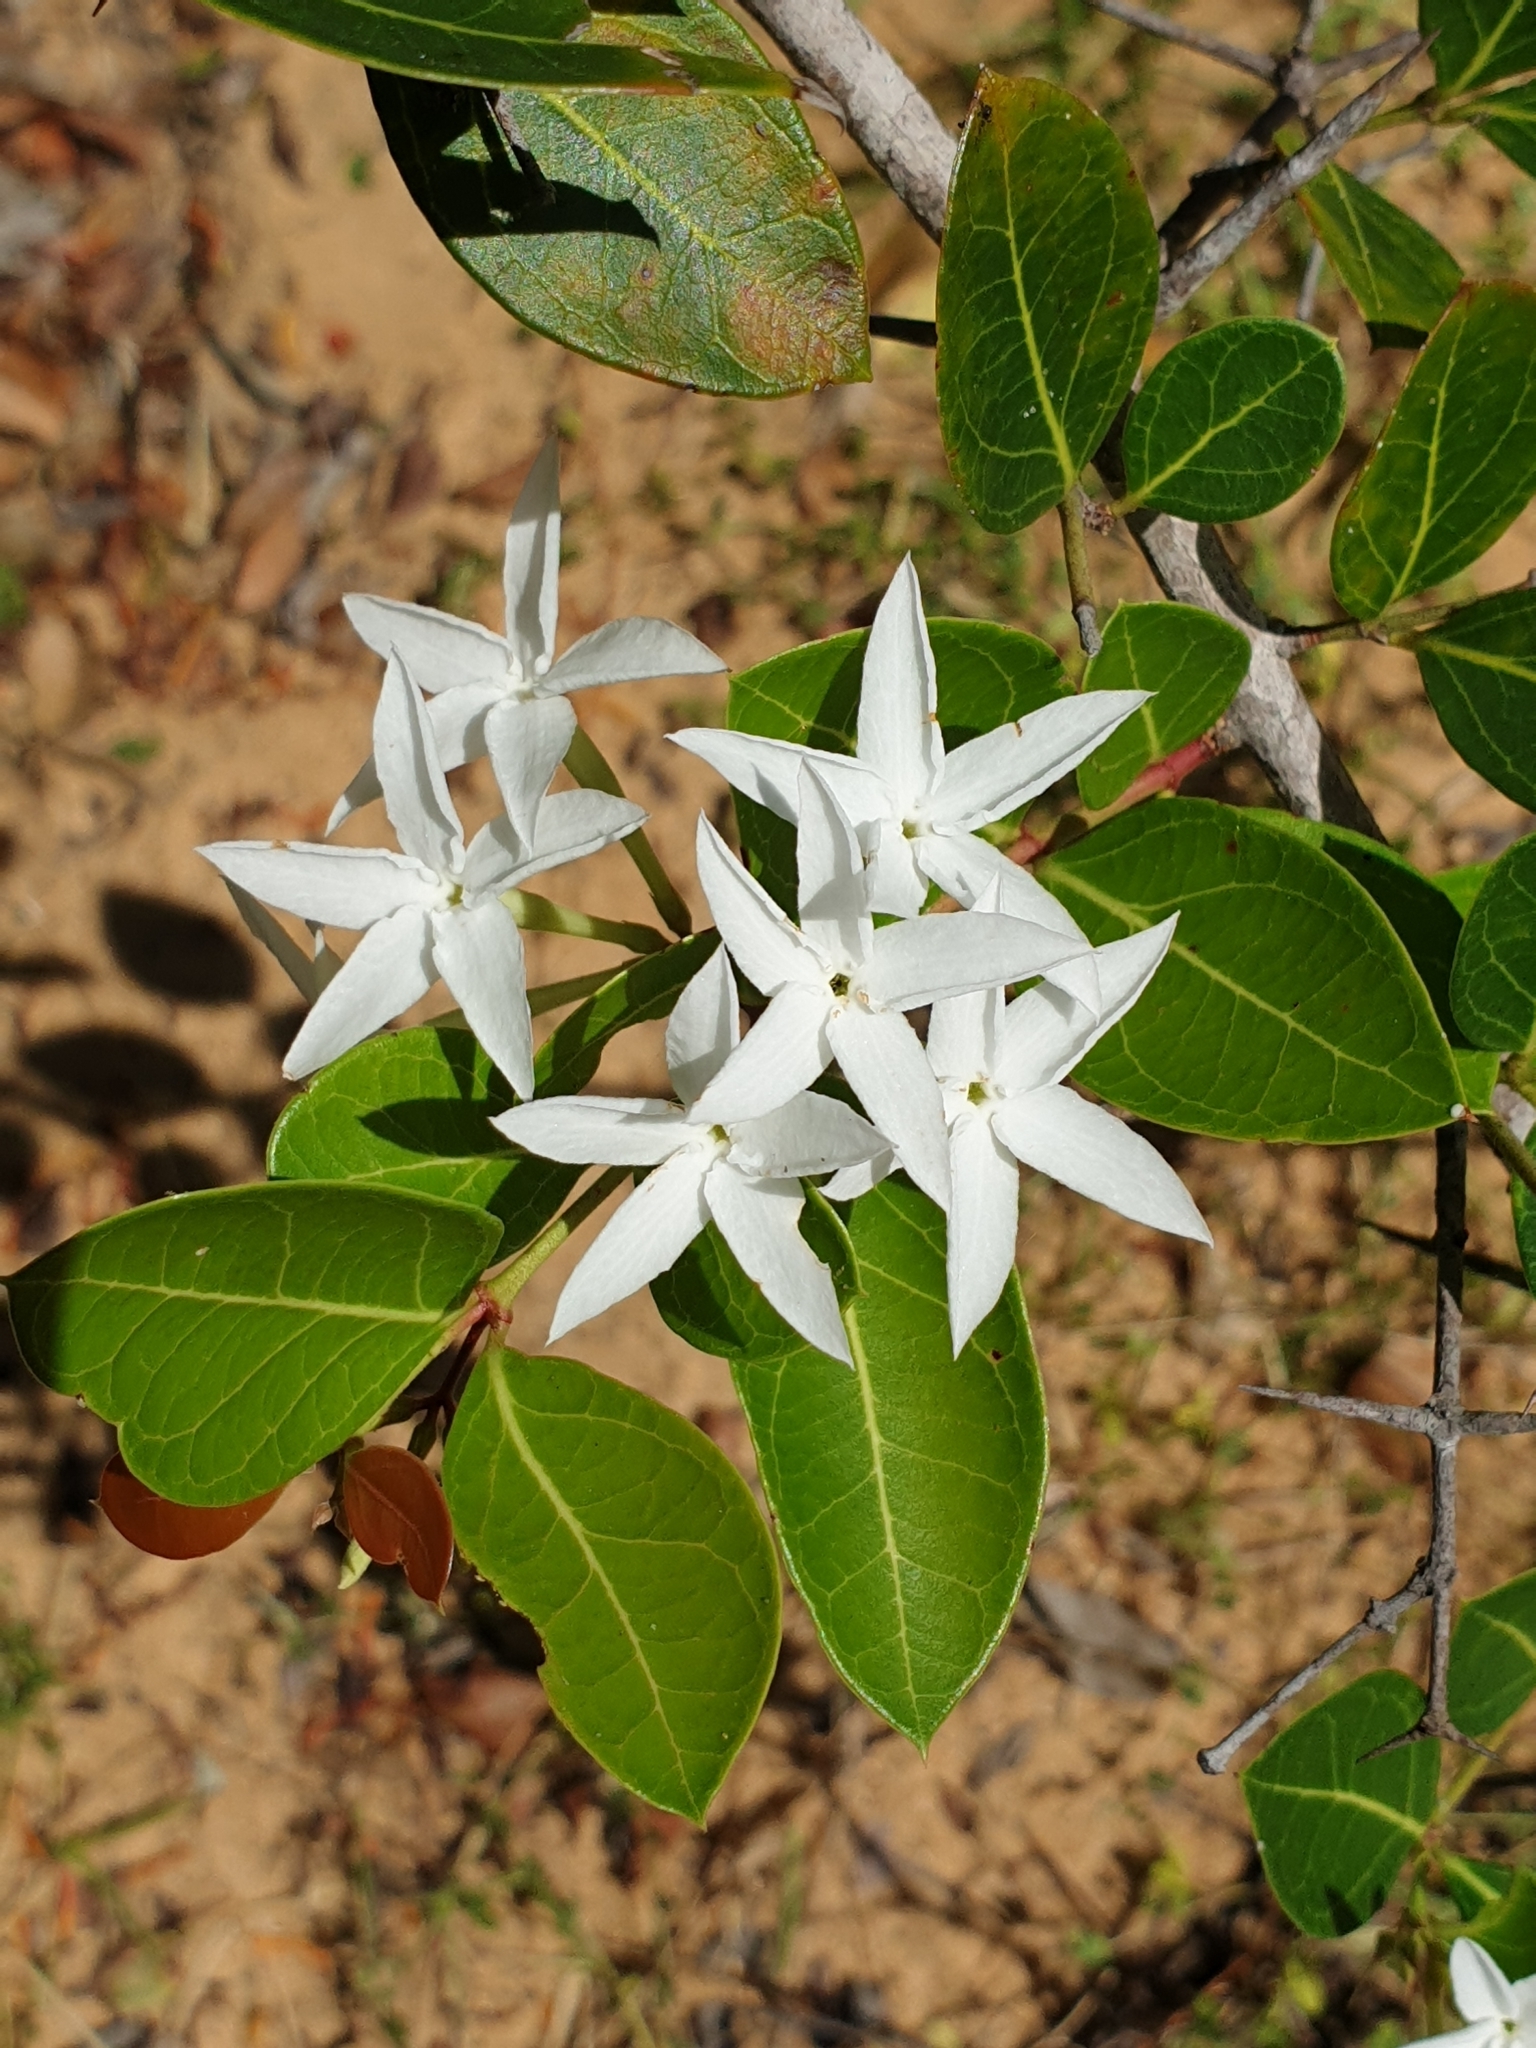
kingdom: Plantae
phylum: Tracheophyta
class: Magnoliopsida
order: Gentianales
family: Apocynaceae
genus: Carissa
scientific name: Carissa spinarum
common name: Egyptian carissa
